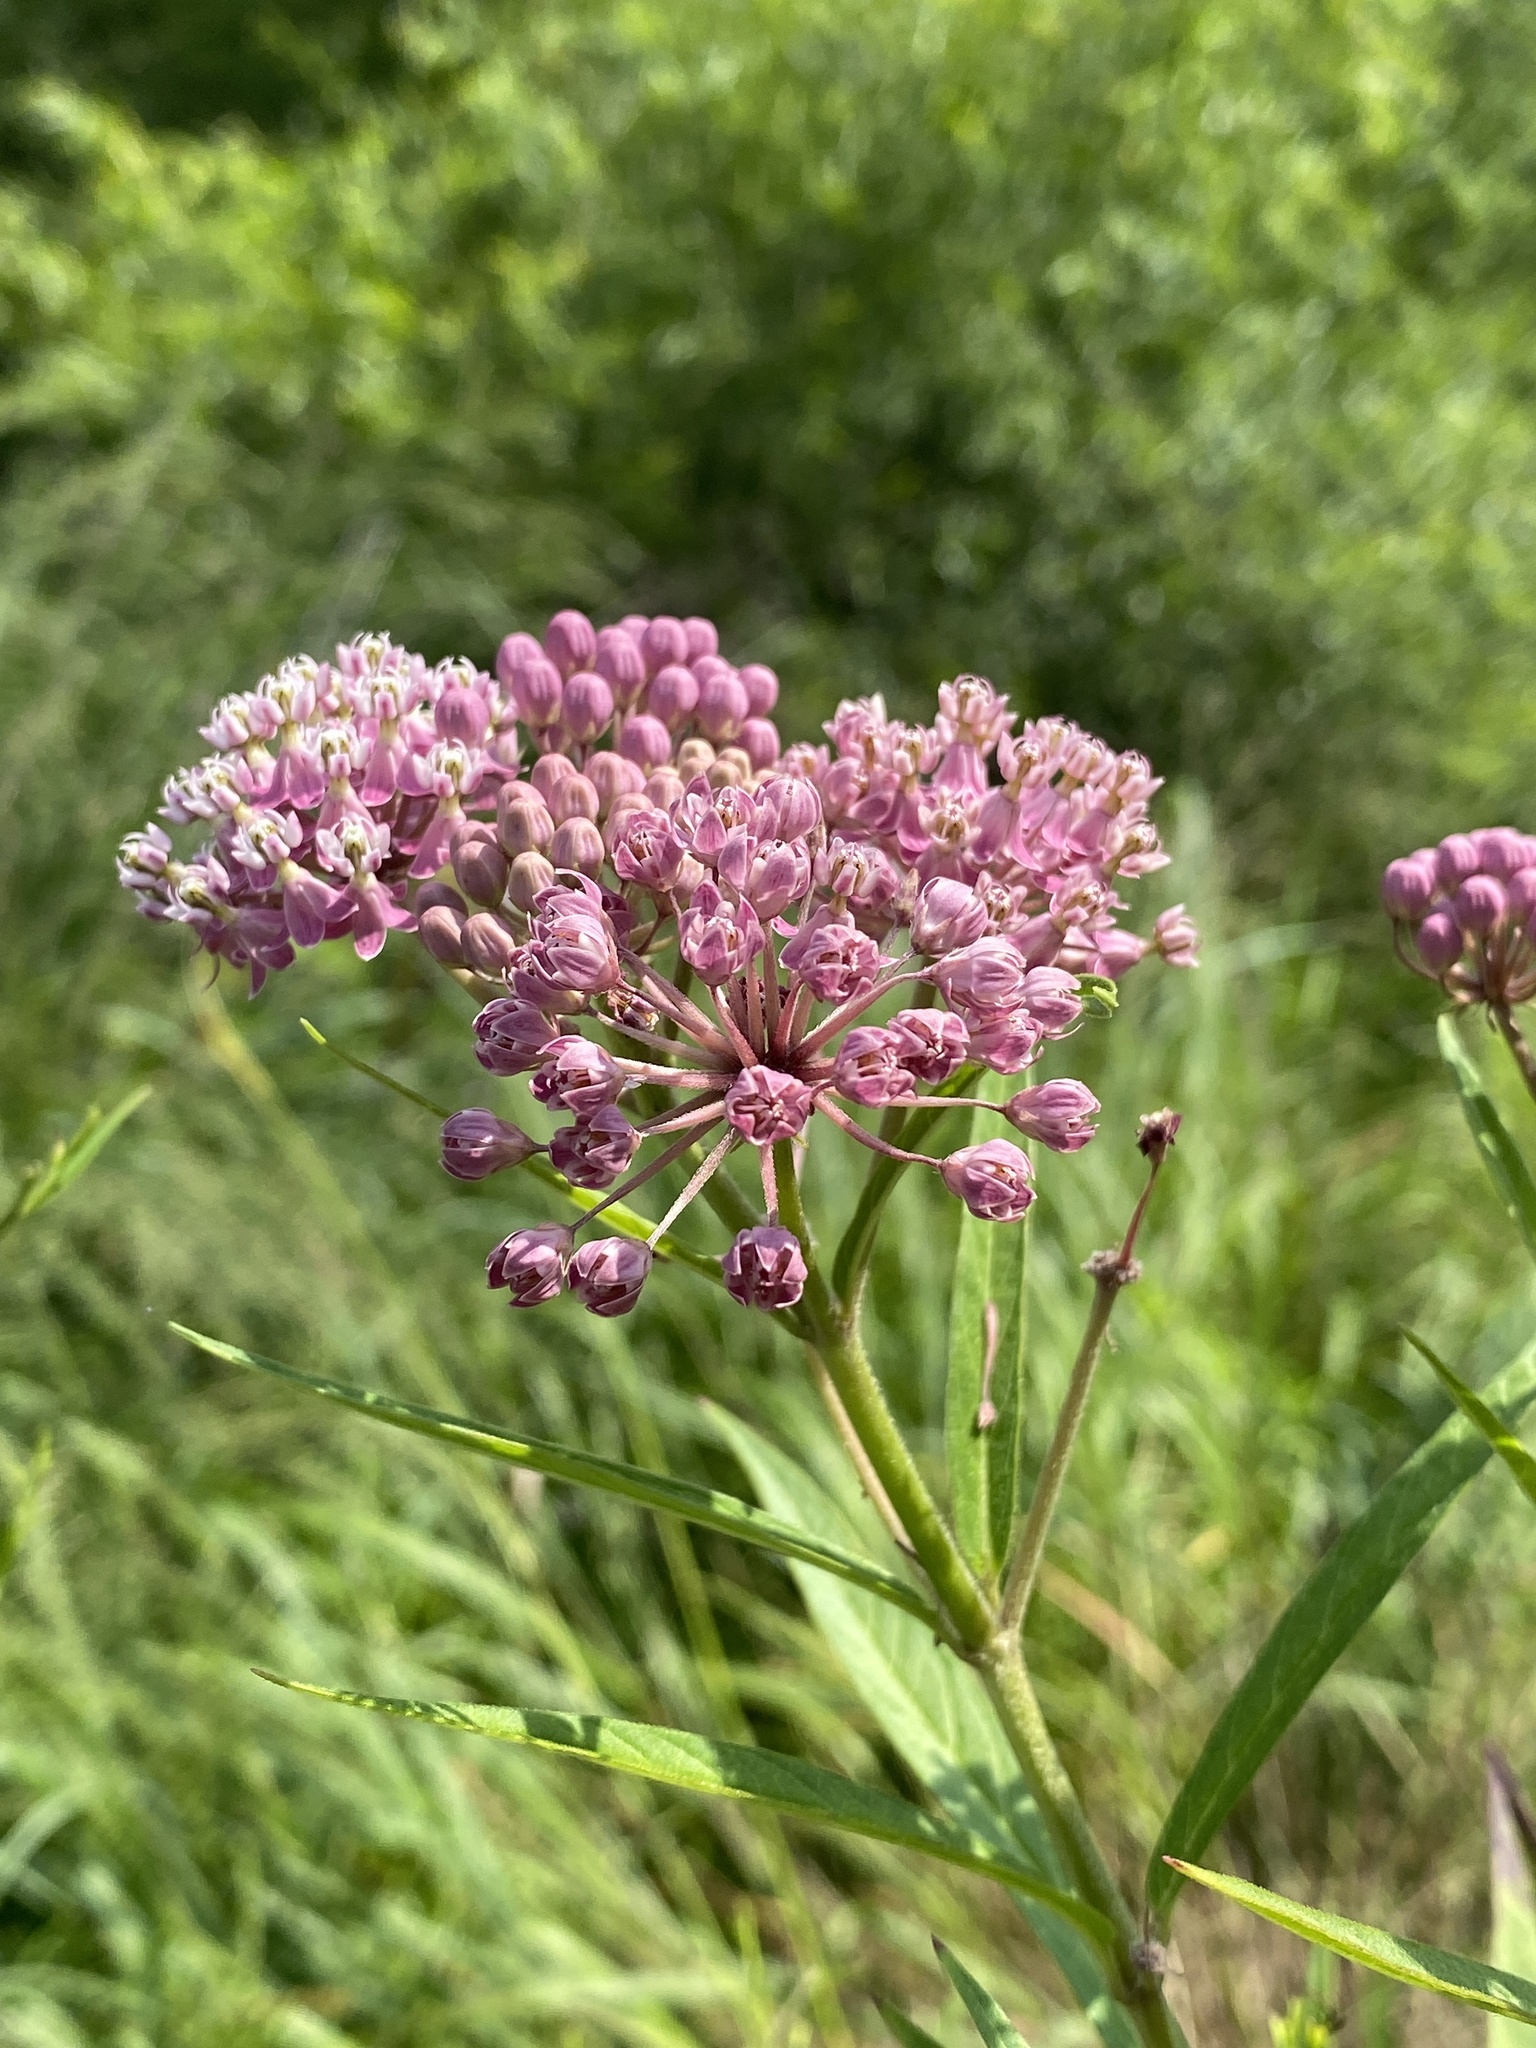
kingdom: Plantae
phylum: Tracheophyta
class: Magnoliopsida
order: Gentianales
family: Apocynaceae
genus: Asclepias
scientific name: Asclepias incarnata
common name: Swamp milkweed
